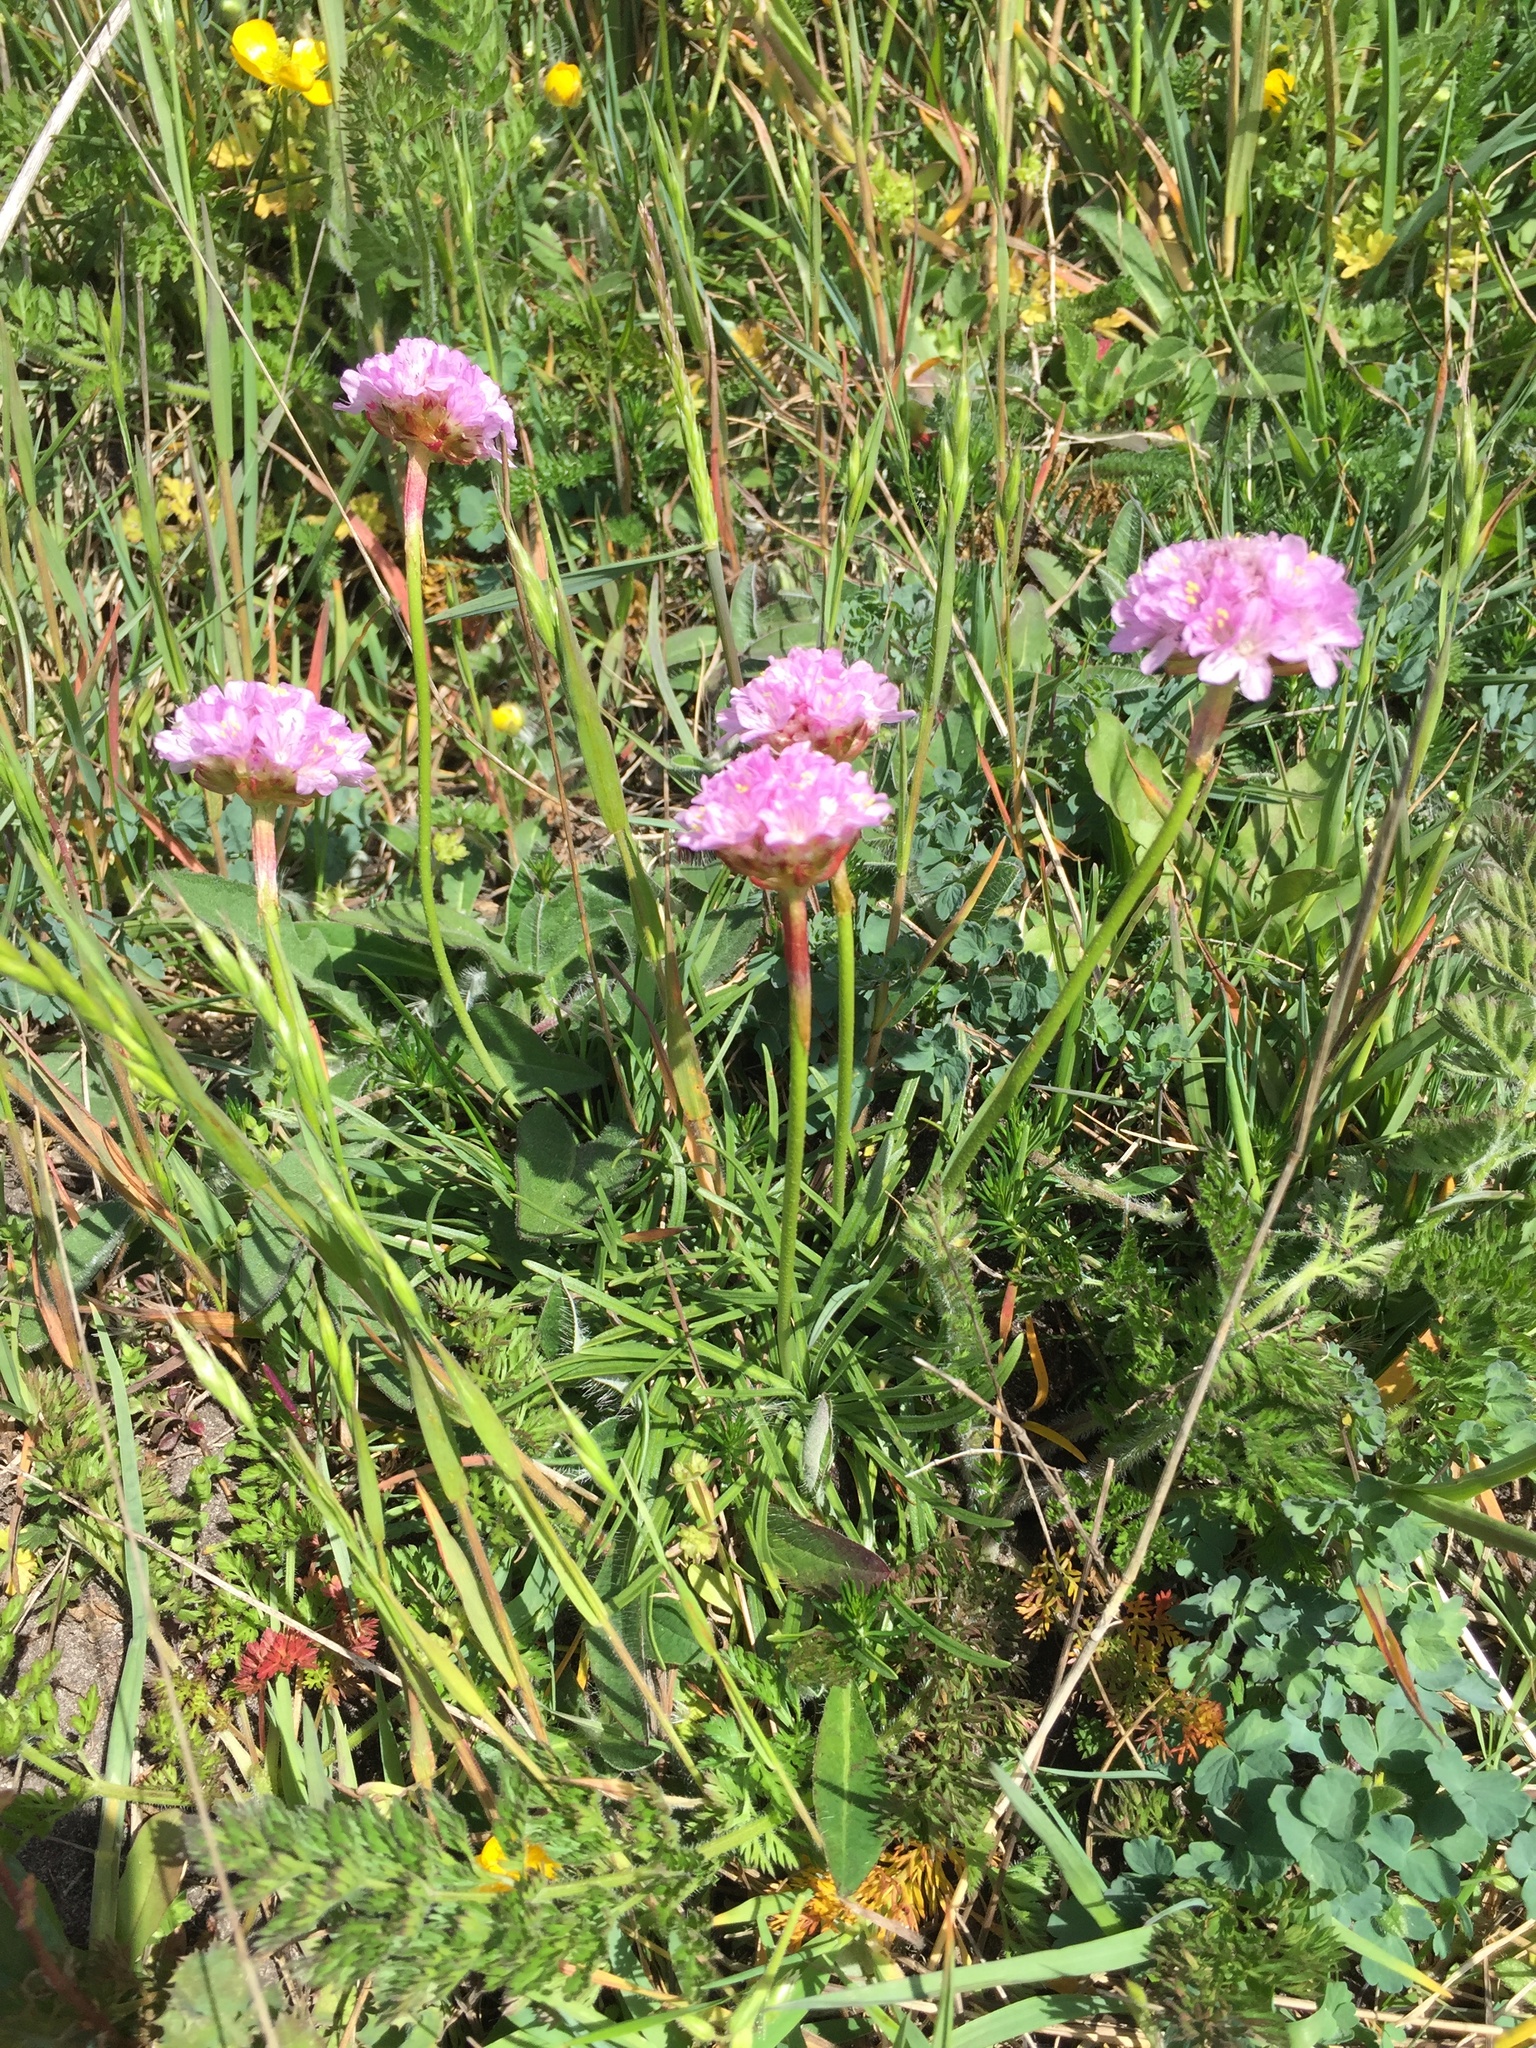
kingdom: Plantae
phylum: Tracheophyta
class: Magnoliopsida
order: Caryophyllales
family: Plumbaginaceae
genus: Armeria
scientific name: Armeria maritima
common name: Thrift
